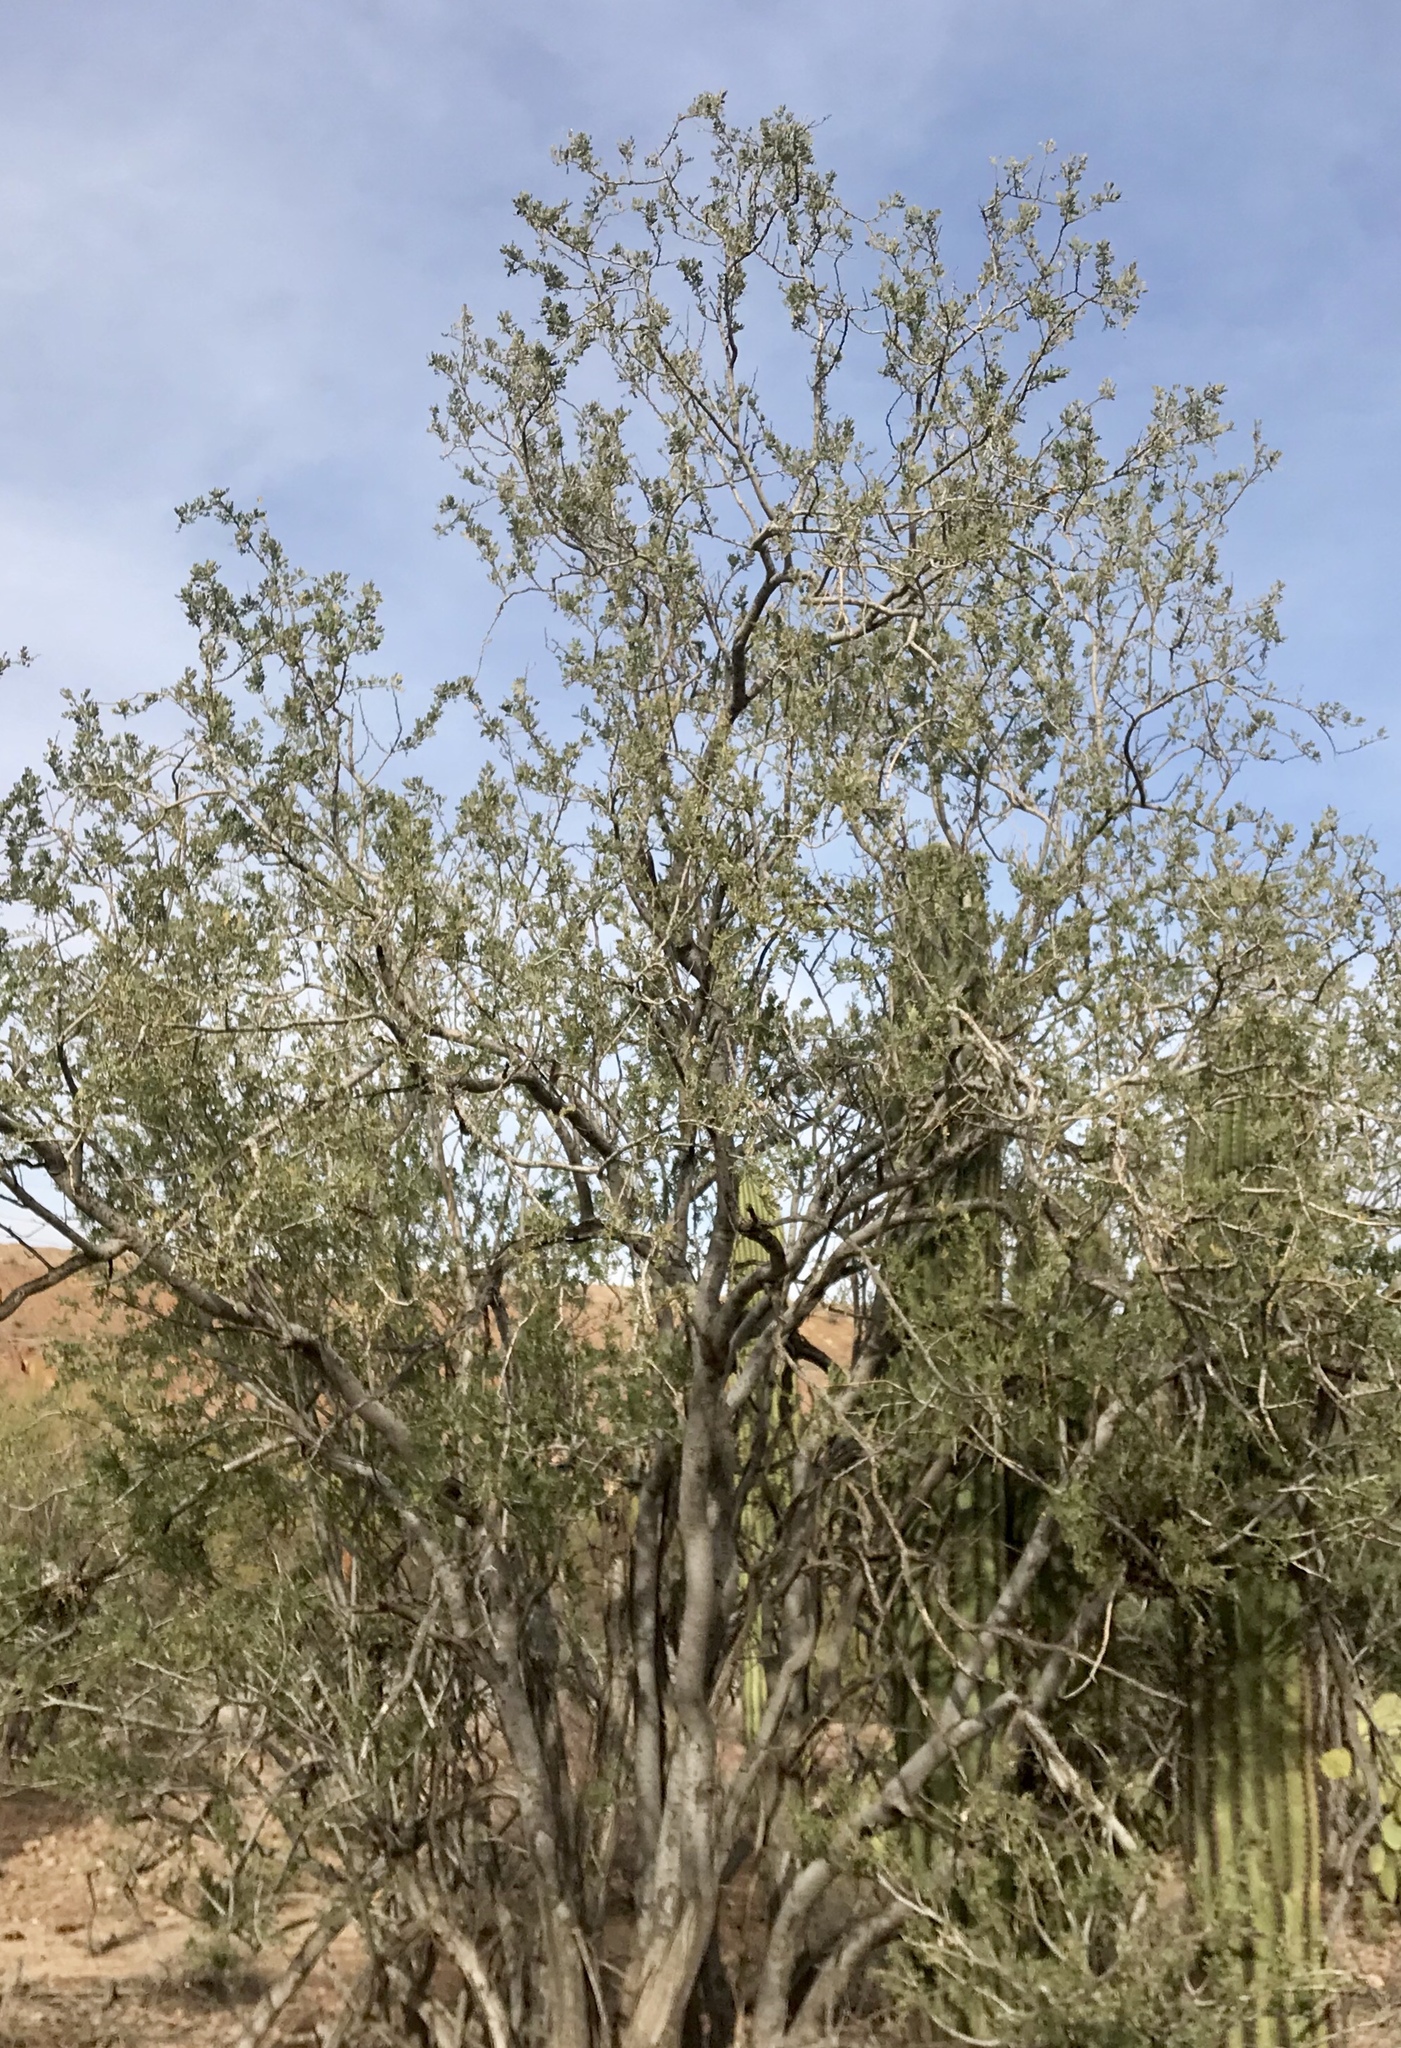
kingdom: Plantae
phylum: Tracheophyta
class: Magnoliopsida
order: Fabales
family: Fabaceae
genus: Olneya
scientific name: Olneya tesota
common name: Desert ironwood
